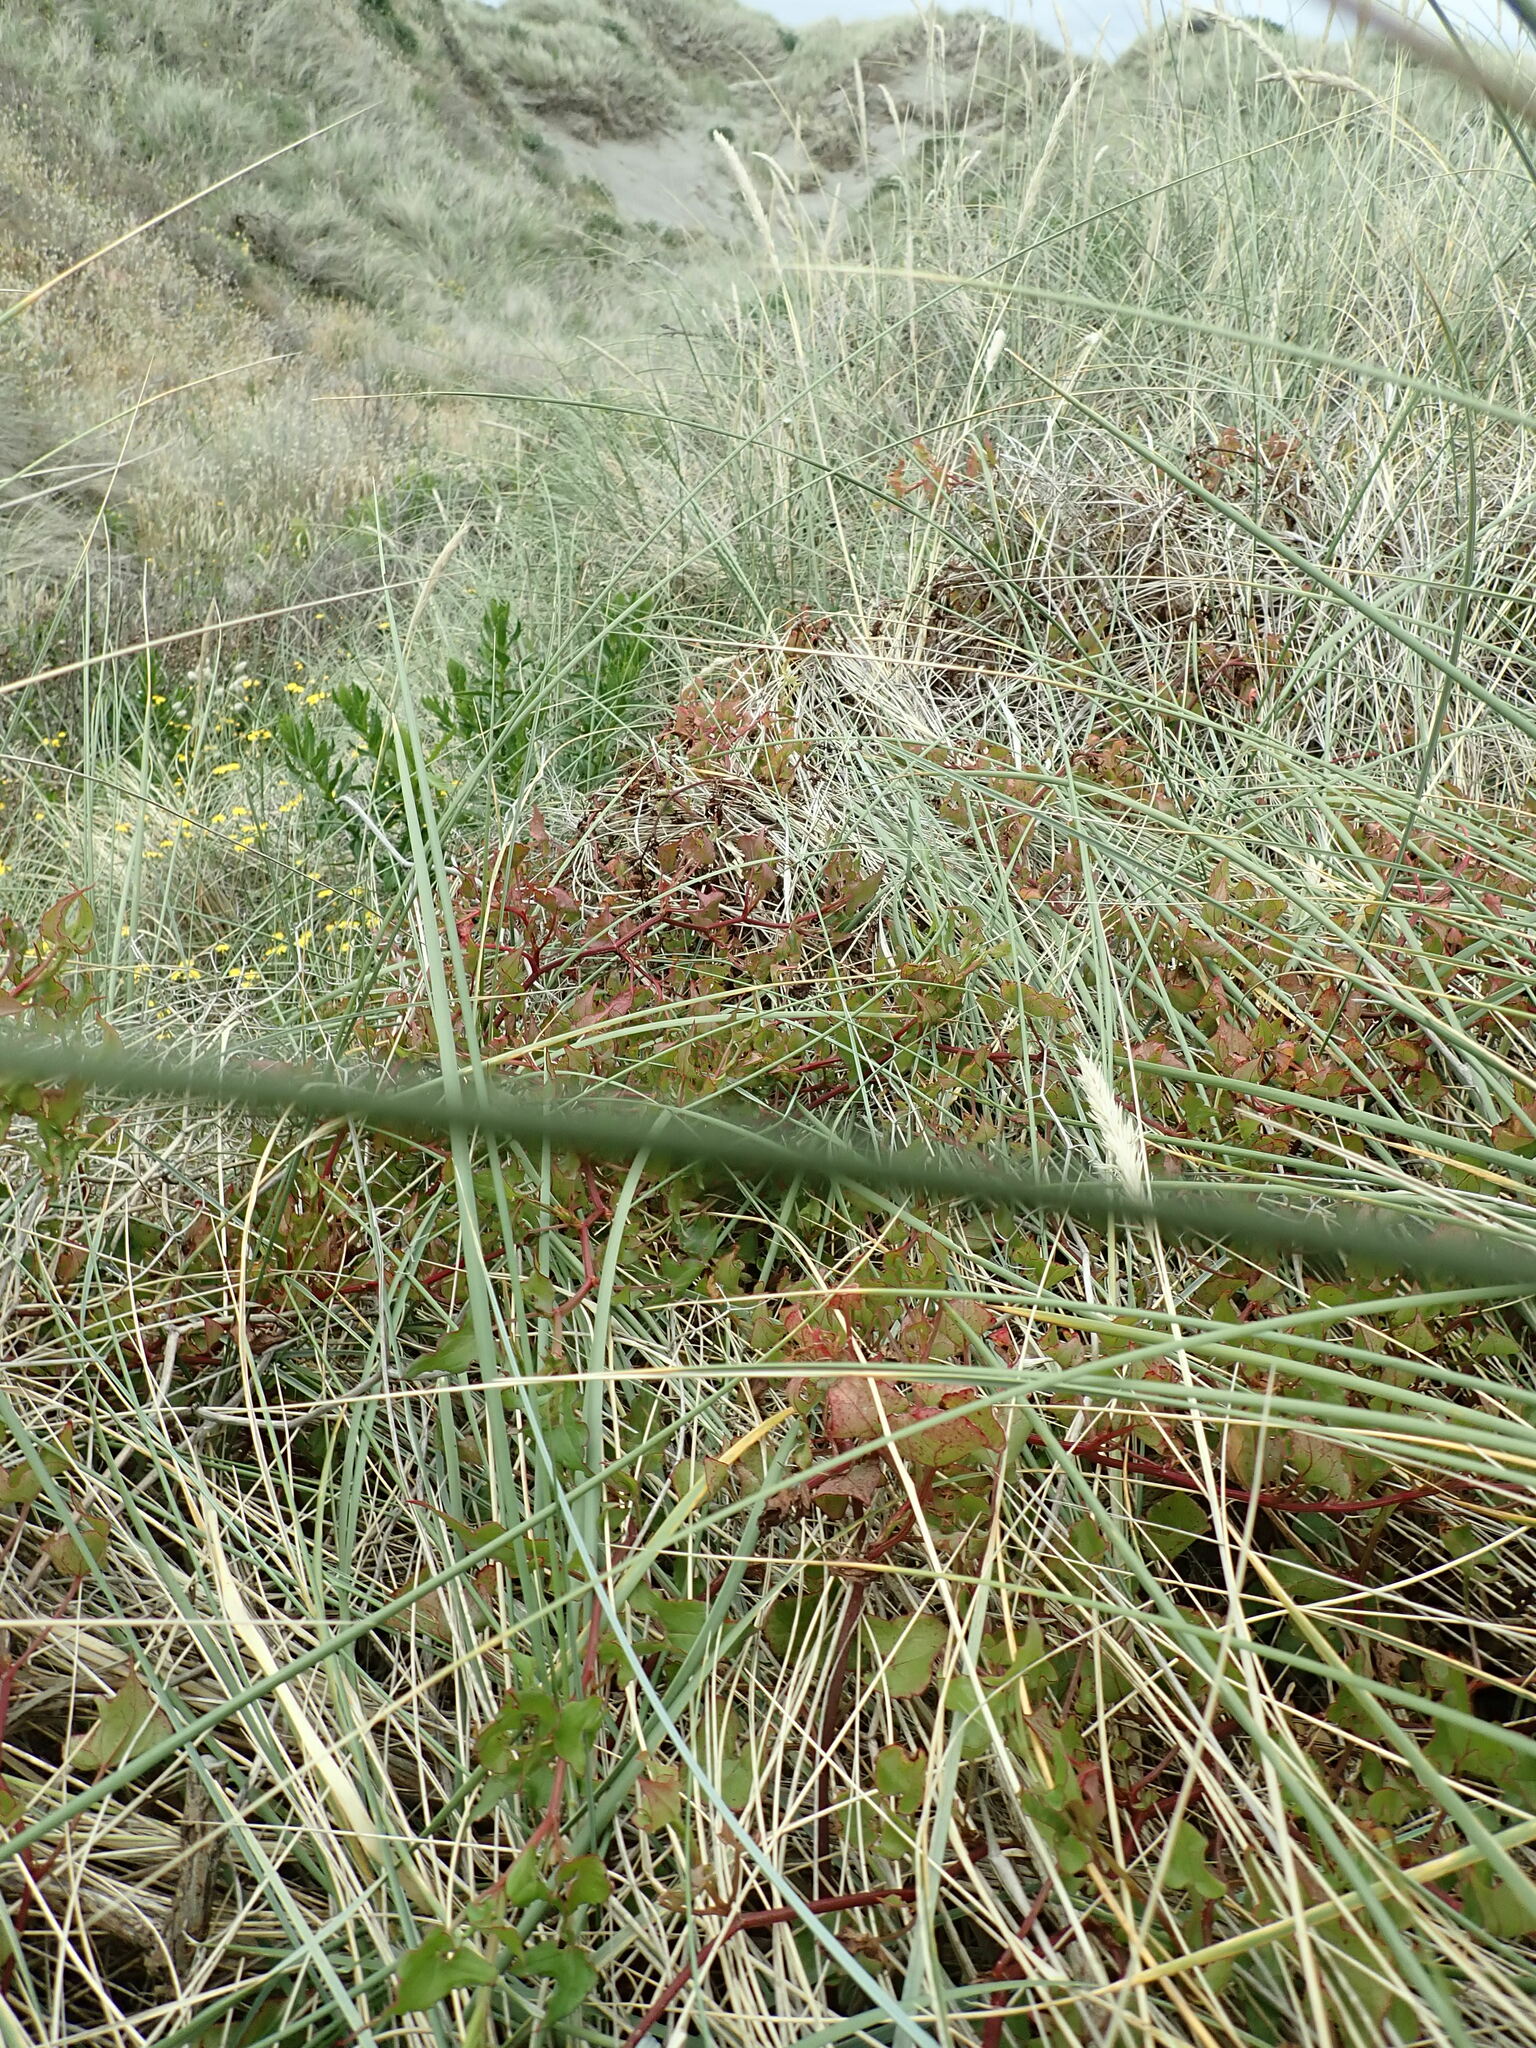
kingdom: Plantae
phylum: Tracheophyta
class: Magnoliopsida
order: Caryophyllales
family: Polygonaceae
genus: Rumex
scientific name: Rumex sagittatus
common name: Climbing dock
